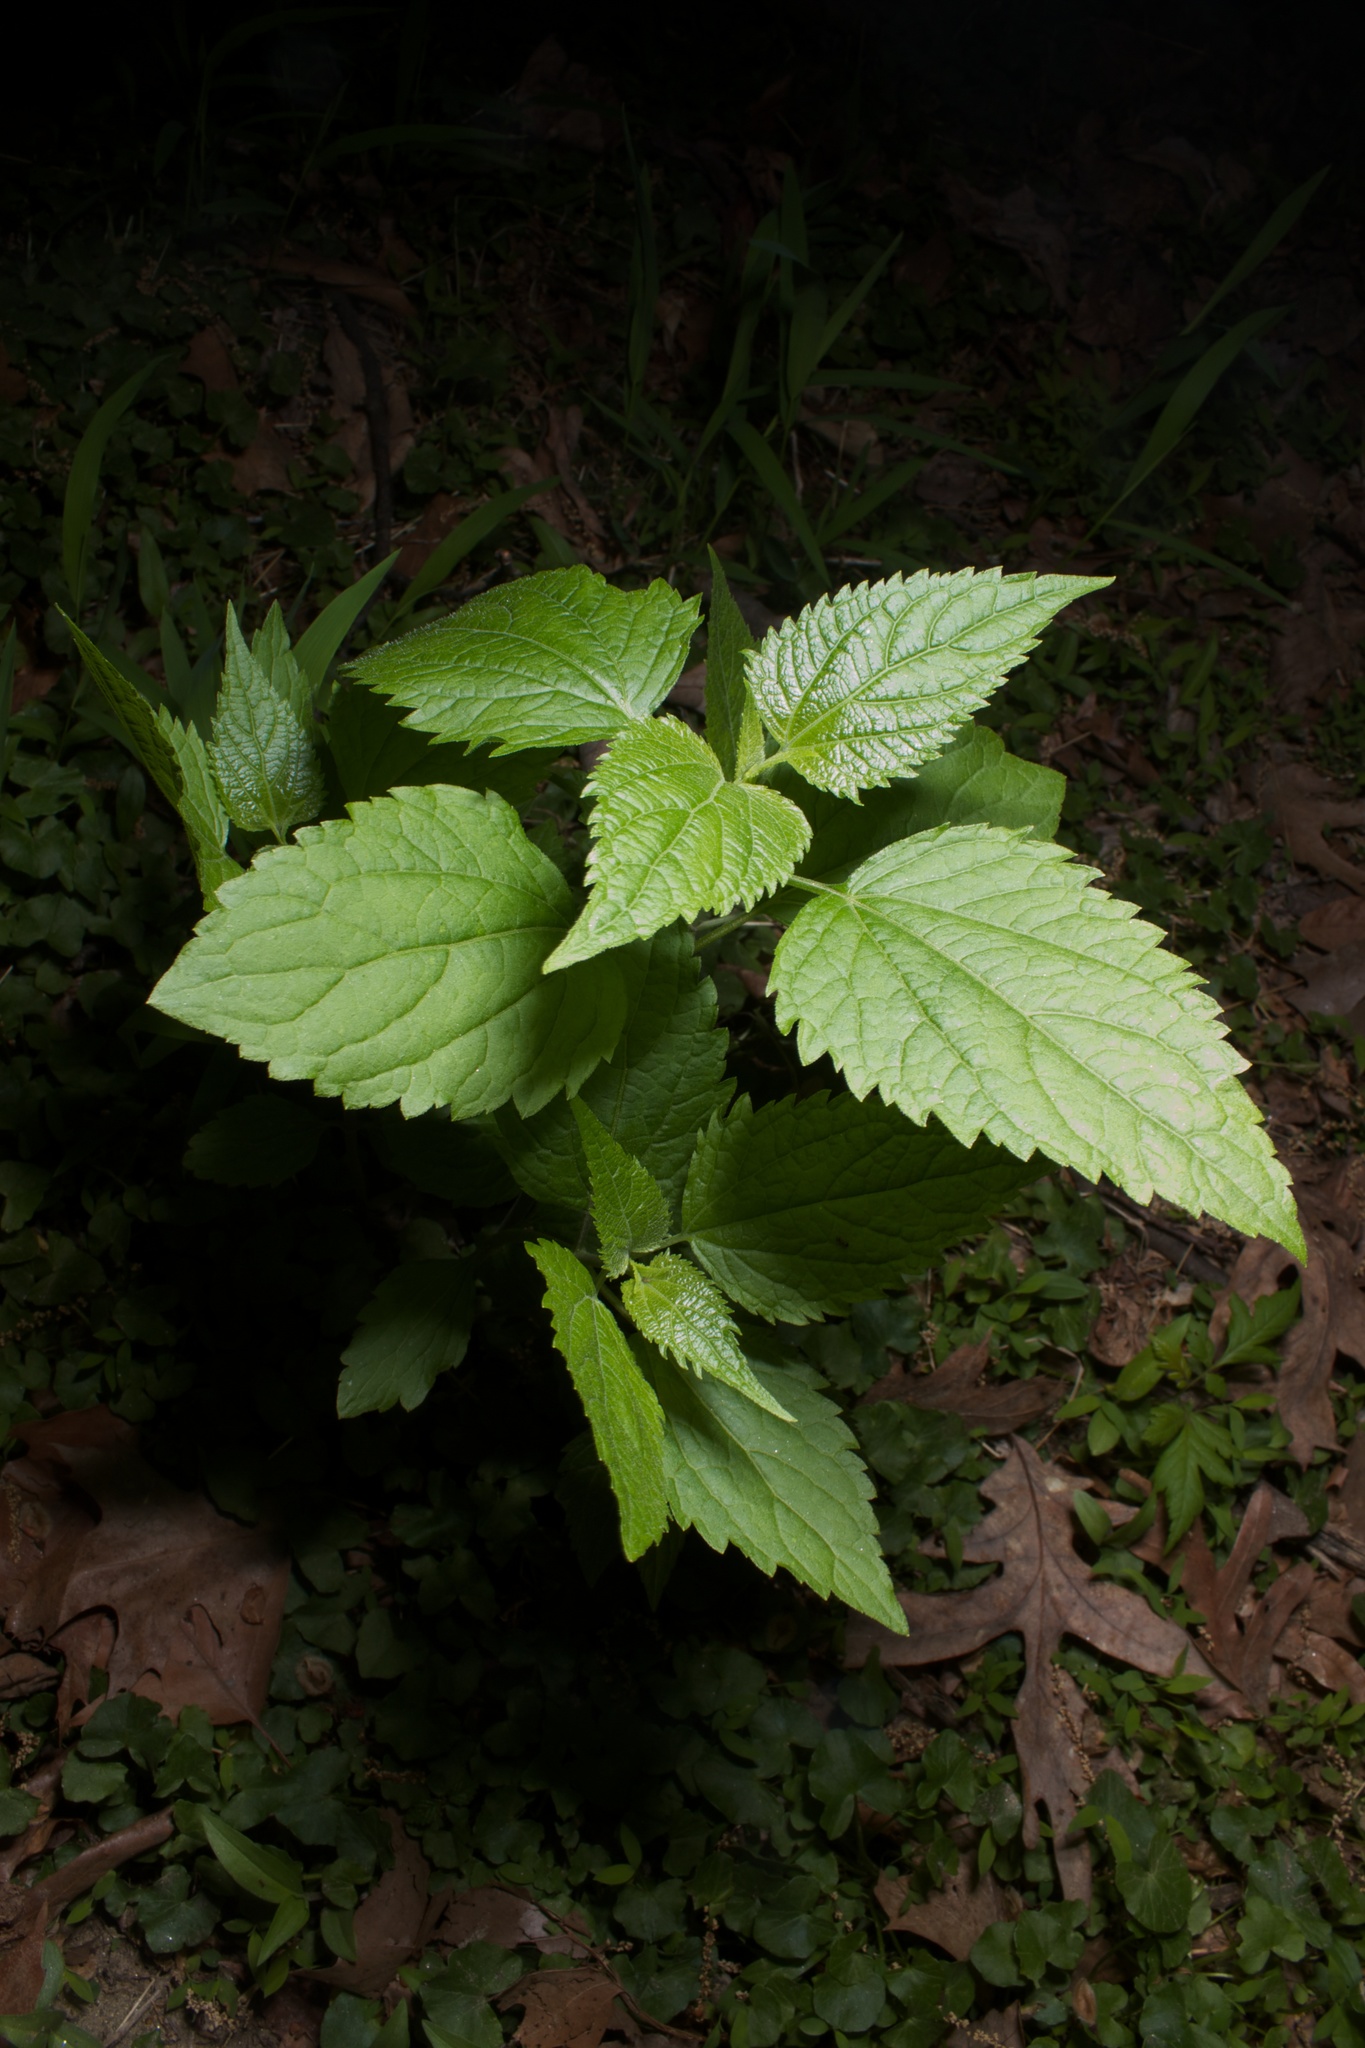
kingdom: Plantae
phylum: Tracheophyta
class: Magnoliopsida
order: Asterales
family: Asteraceae
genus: Ageratina
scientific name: Ageratina altissima
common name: White snakeroot
